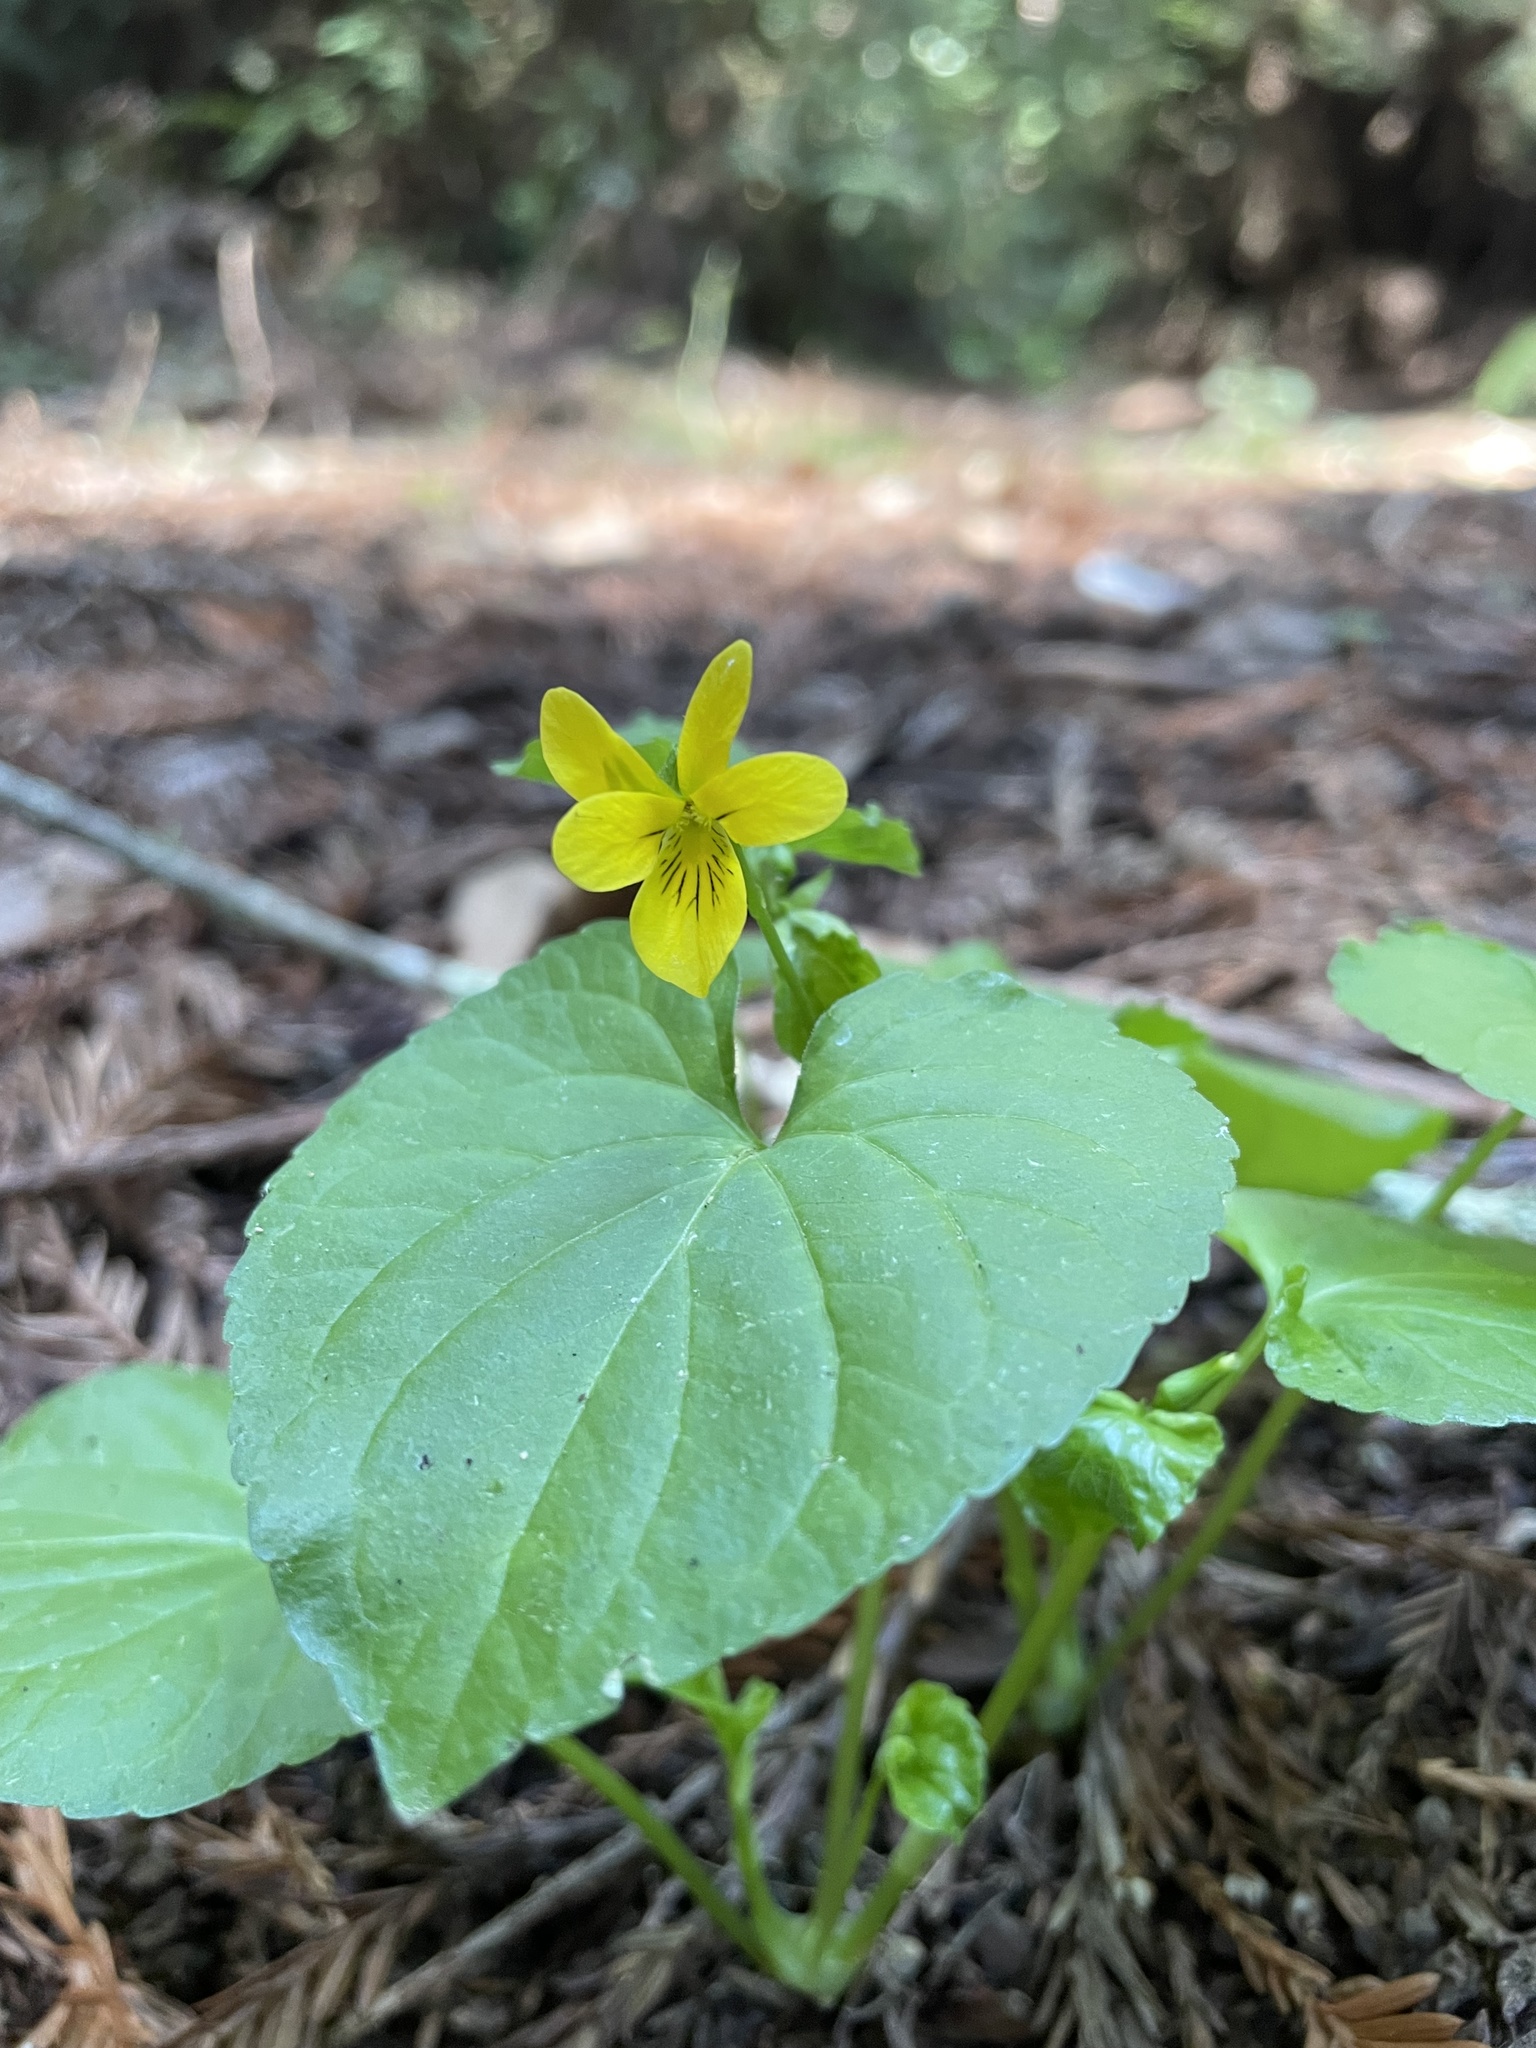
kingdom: Plantae
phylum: Tracheophyta
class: Magnoliopsida
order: Malpighiales
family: Violaceae
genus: Viola
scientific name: Viola glabella
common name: Stream violet
